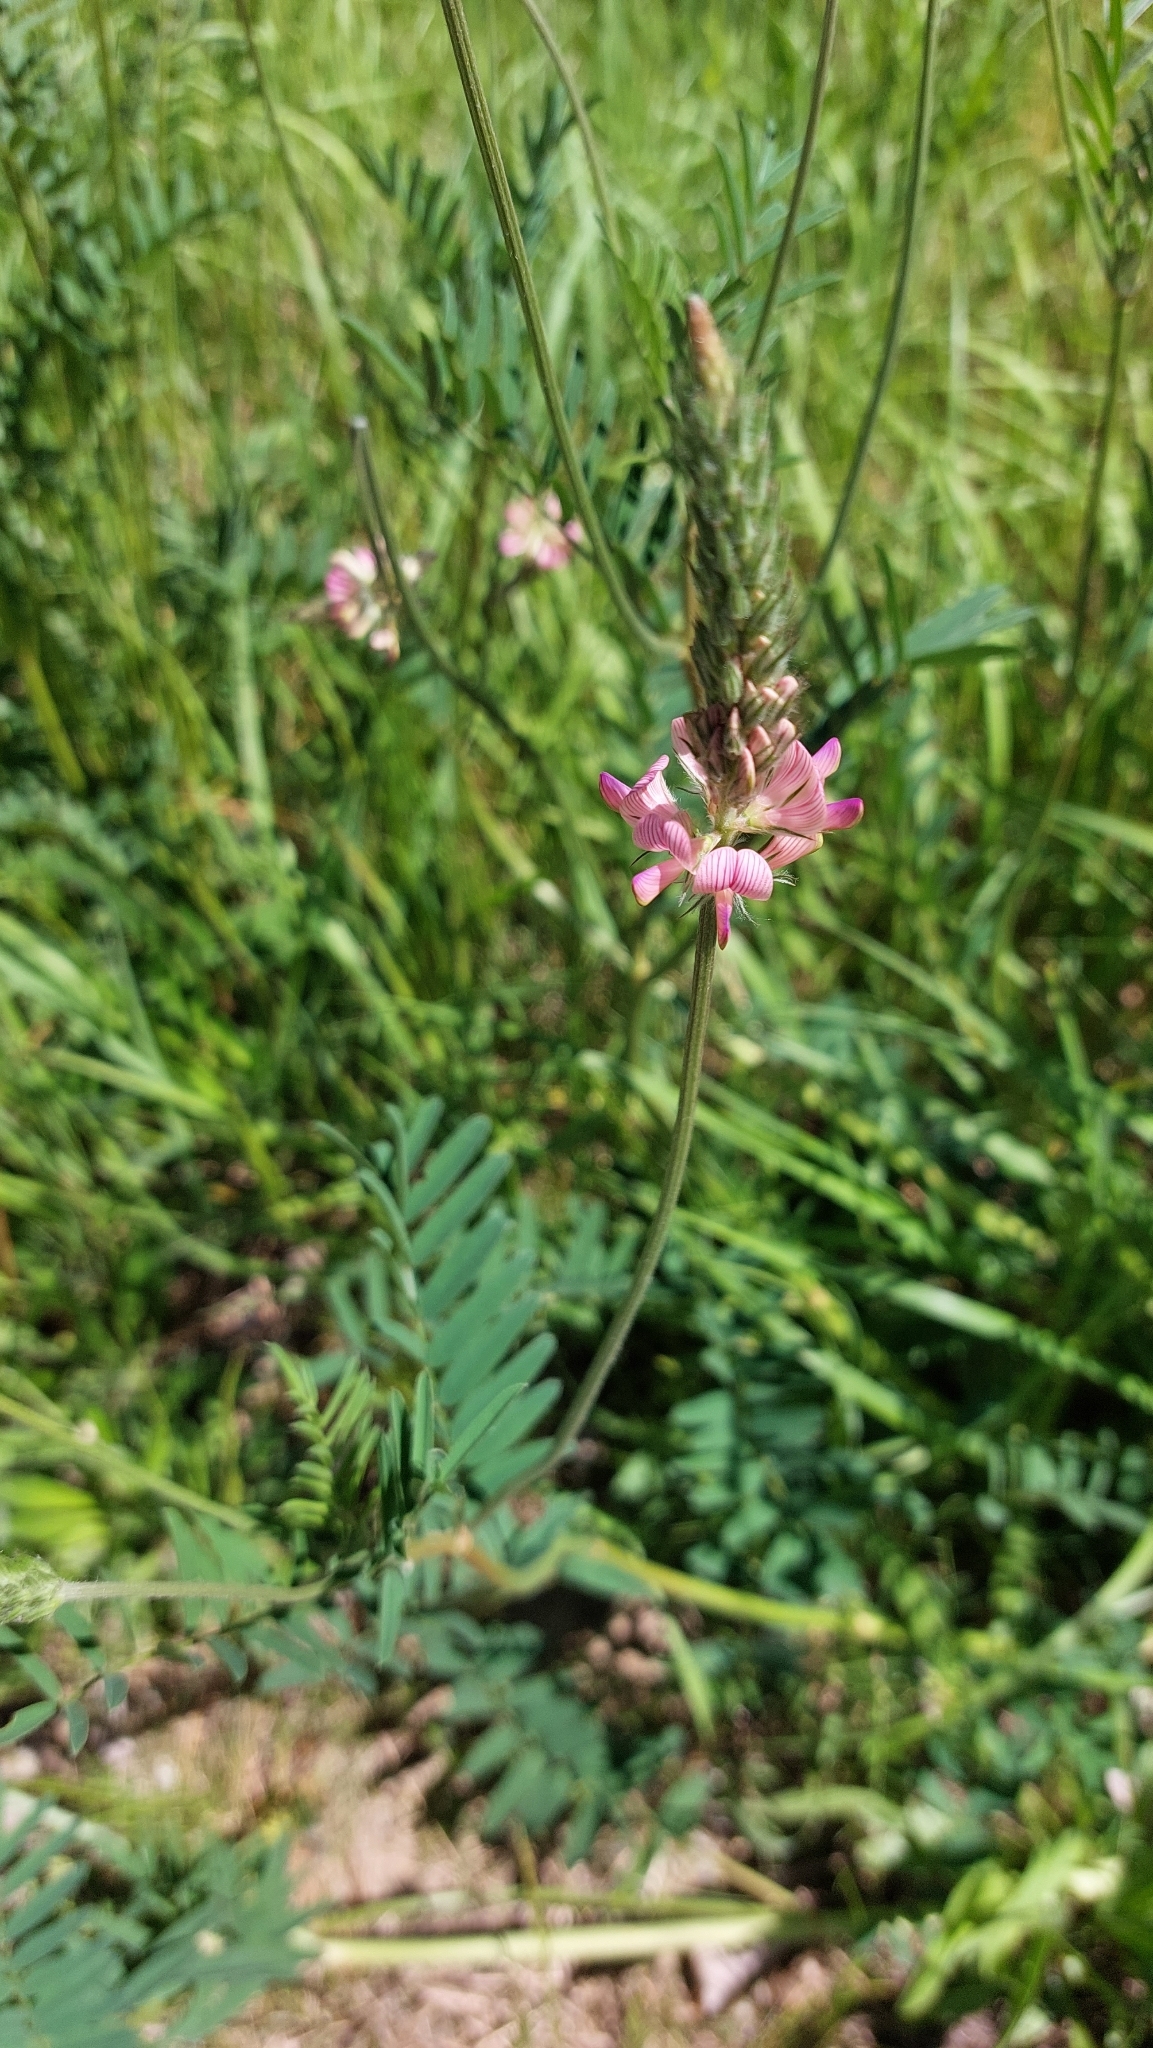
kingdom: Plantae
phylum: Tracheophyta
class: Magnoliopsida
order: Fabales
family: Fabaceae
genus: Onobrychis
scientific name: Onobrychis viciifolia
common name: Sainfoin
